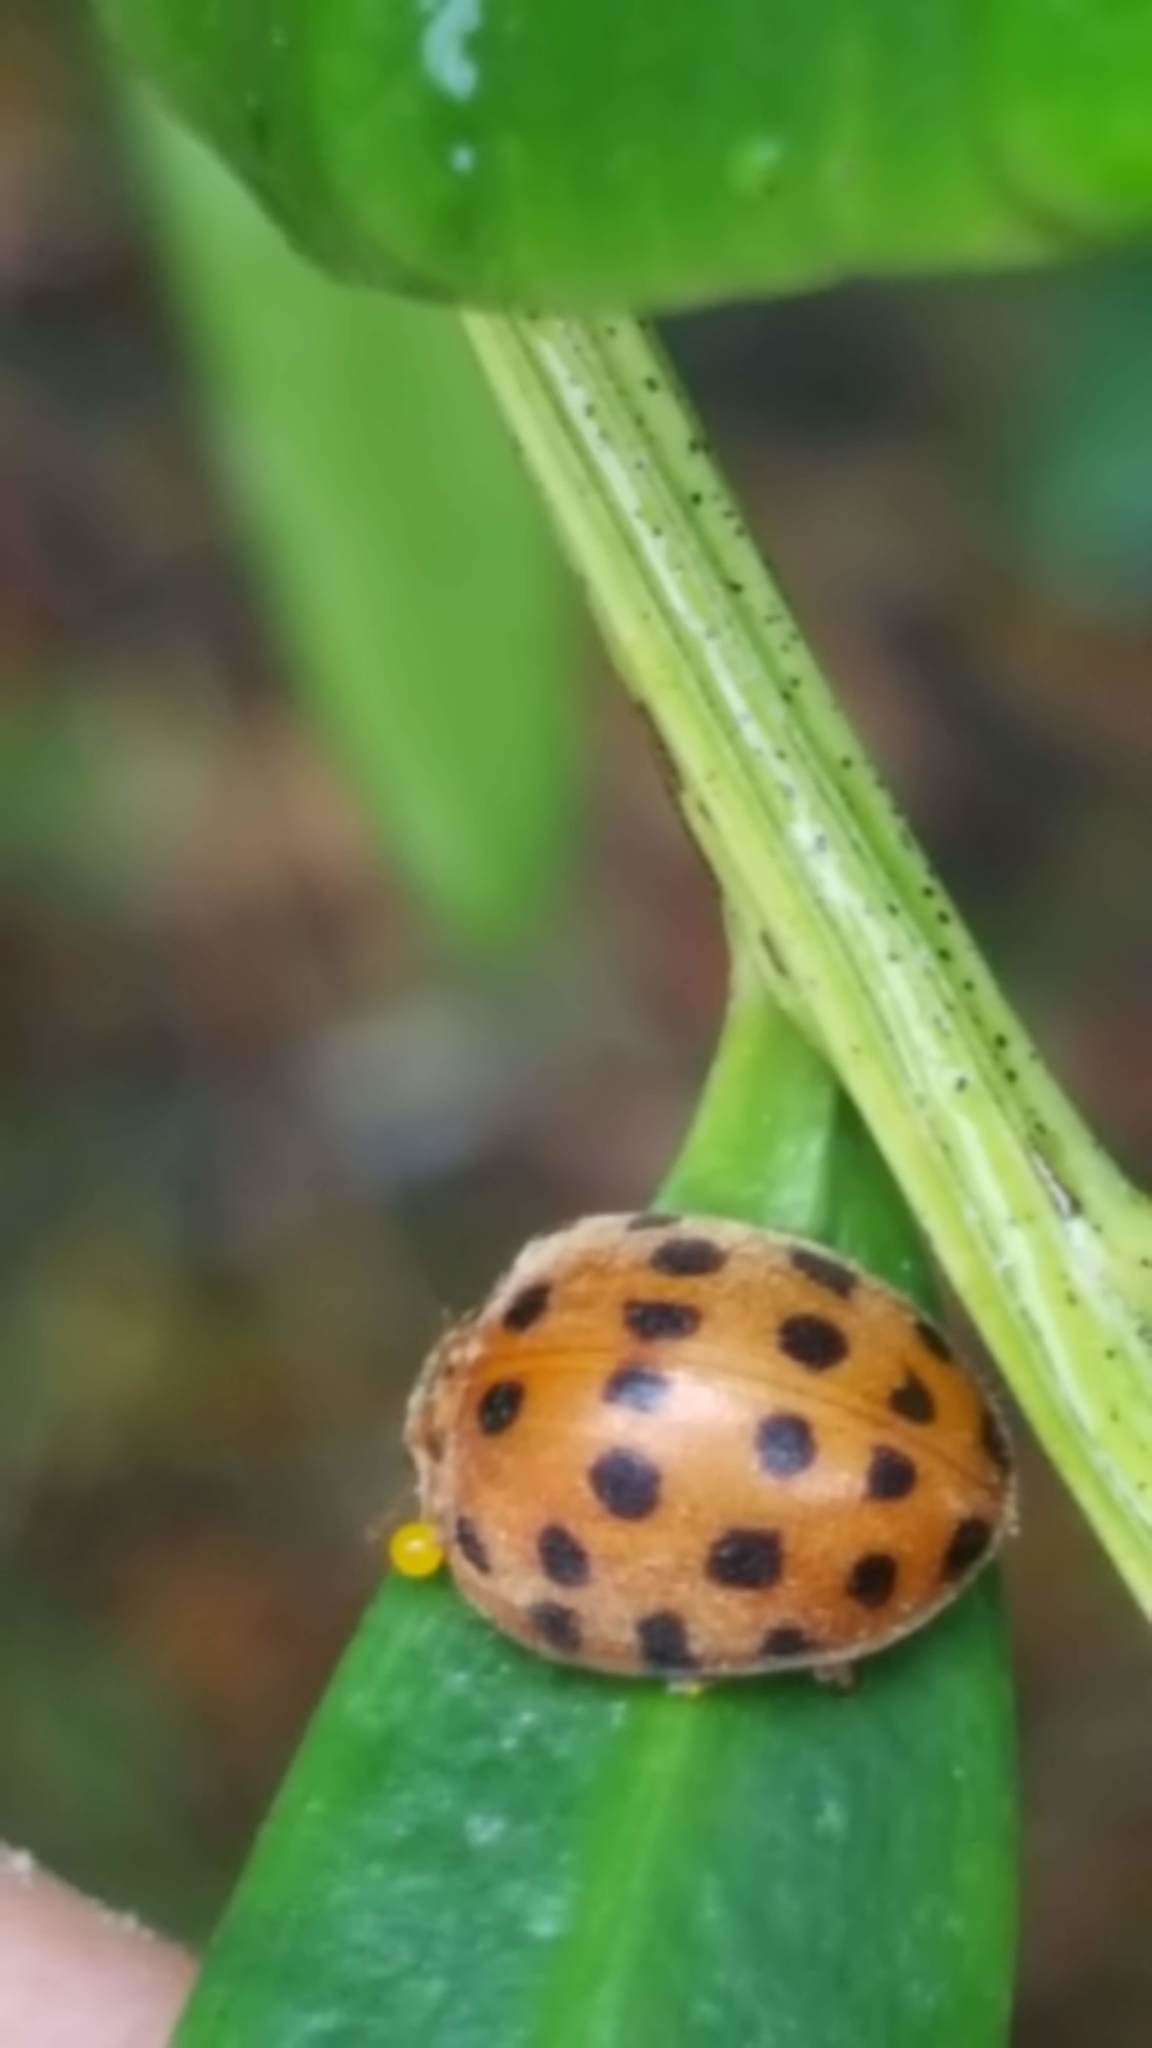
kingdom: Animalia
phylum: Arthropoda
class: Insecta
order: Coleoptera
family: Coccinellidae
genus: Henosepilachna
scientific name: Henosepilachna vigintioctopunctata
